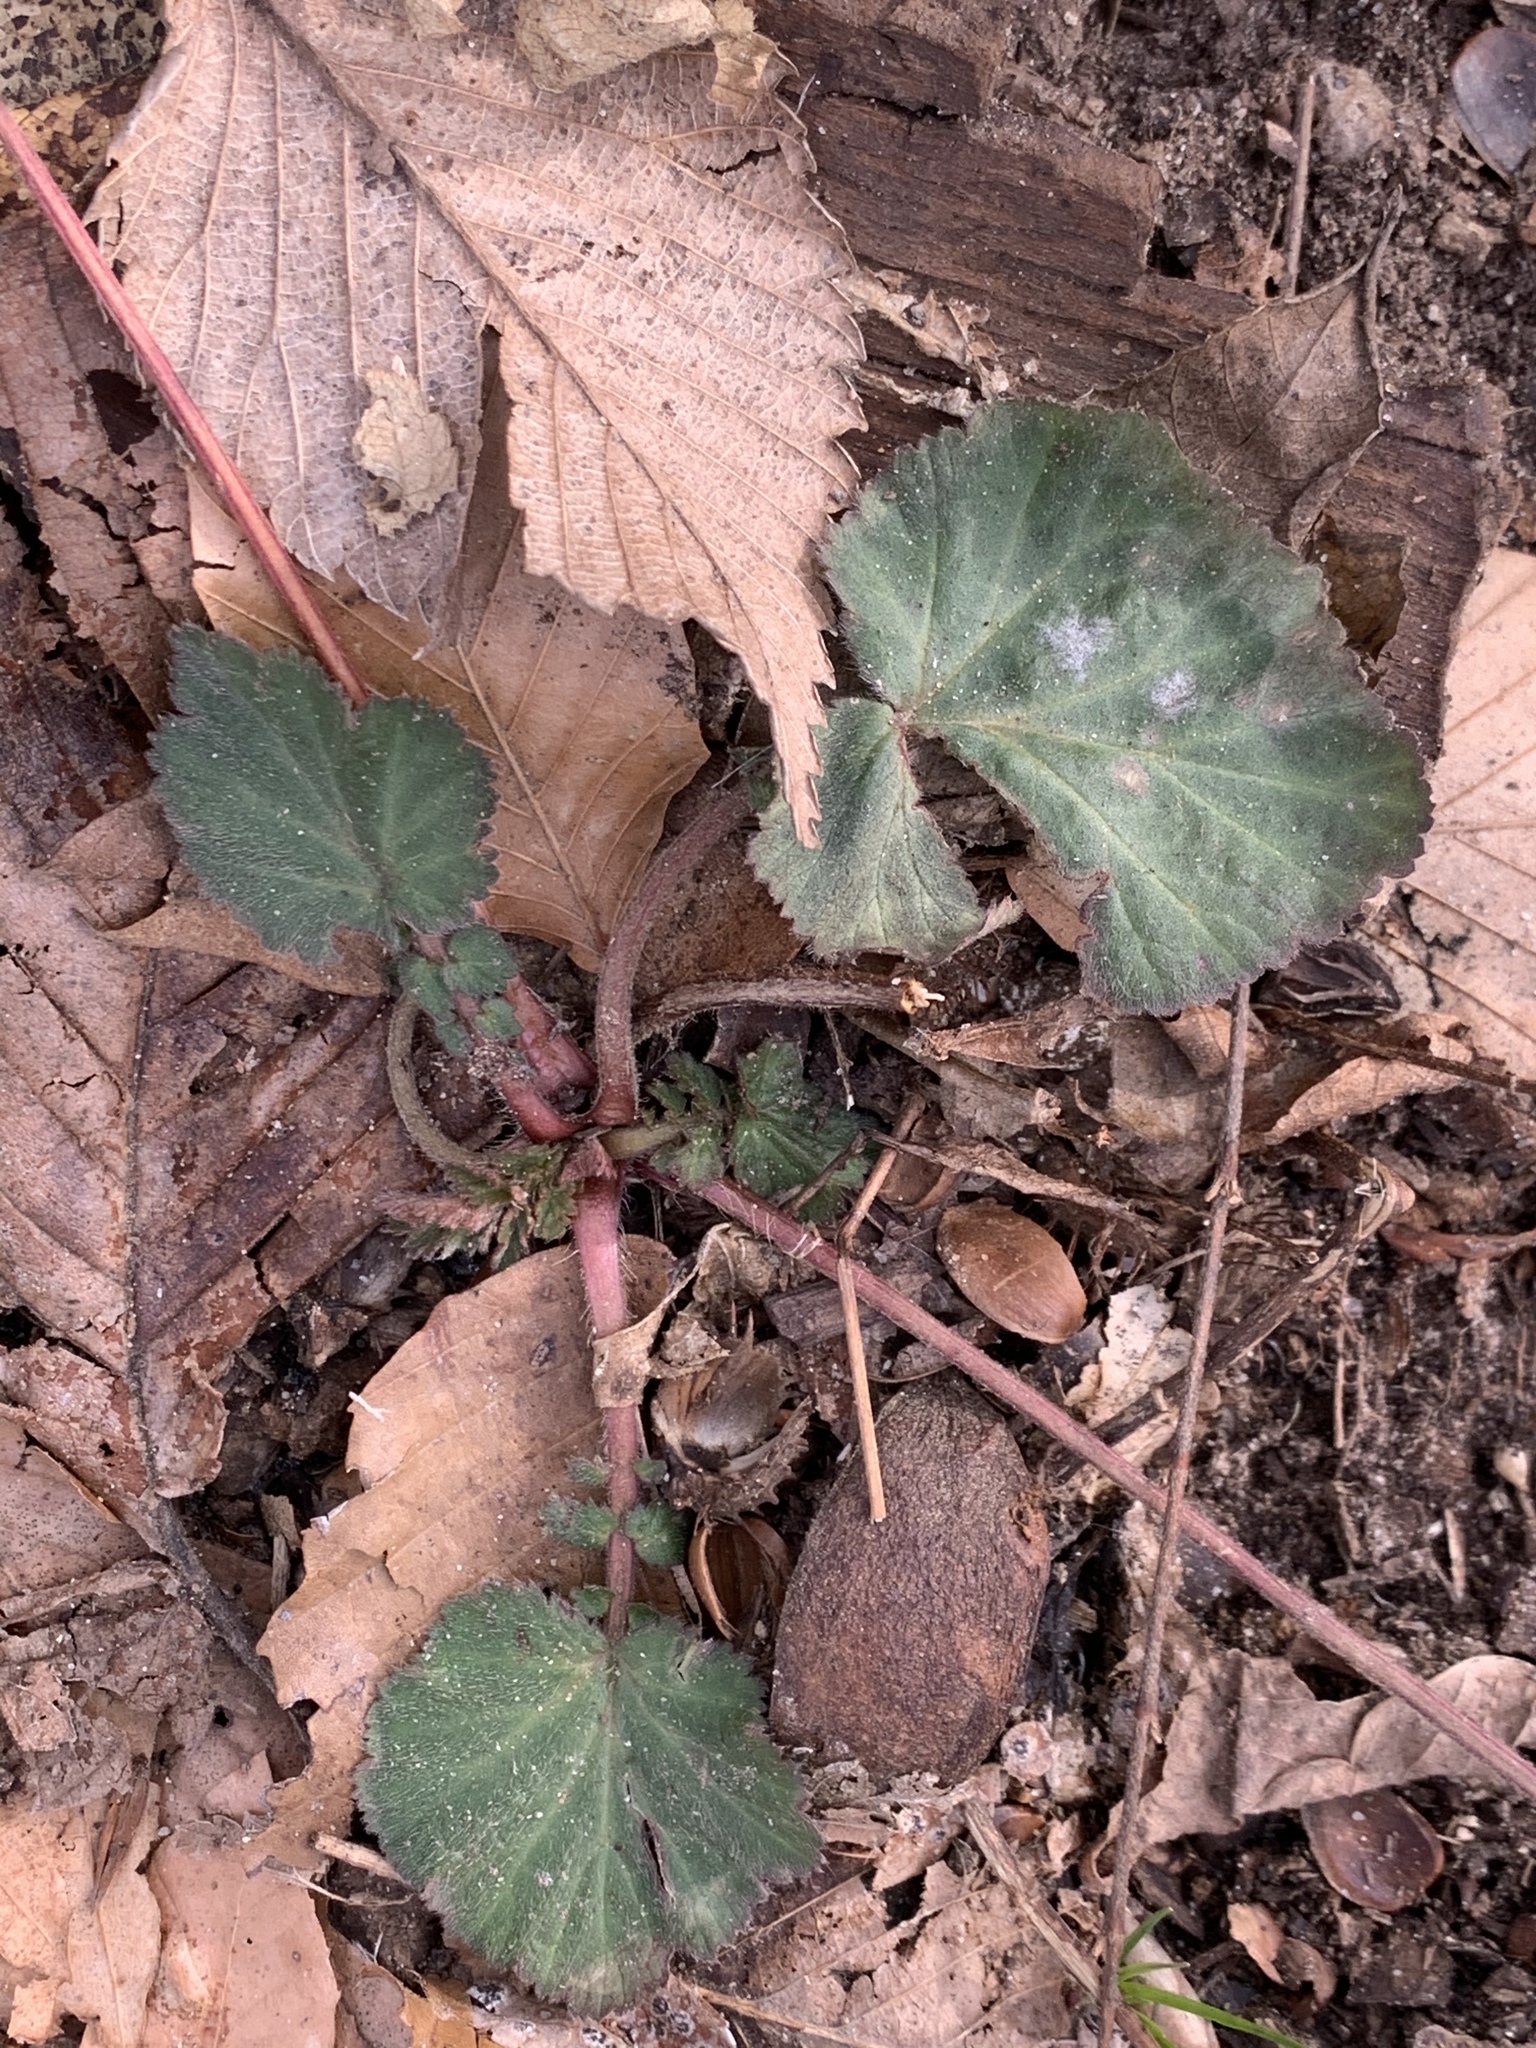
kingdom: Plantae
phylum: Tracheophyta
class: Magnoliopsida
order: Rosales
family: Rosaceae
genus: Geum
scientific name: Geum canadense
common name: White avens
